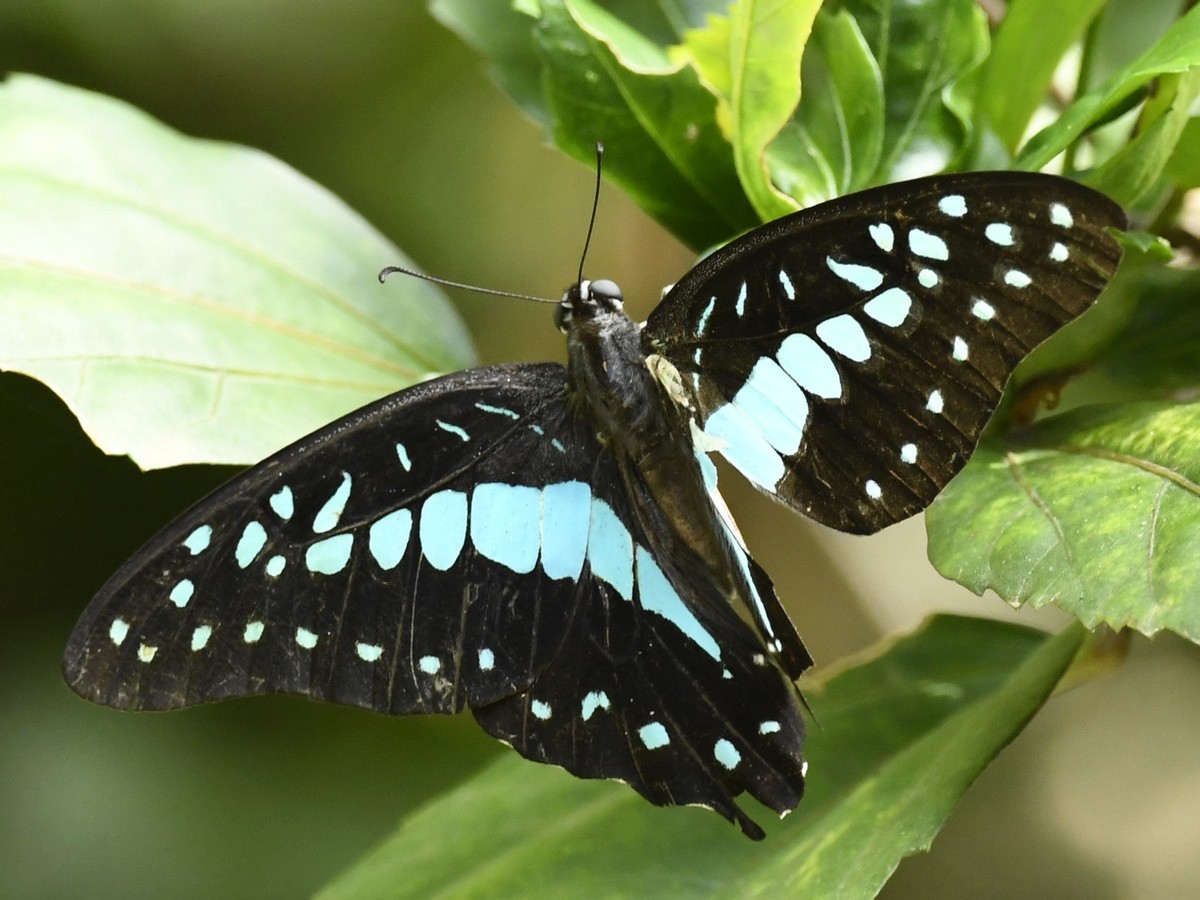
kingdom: Animalia
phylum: Arthropoda
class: Insecta
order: Lepidoptera
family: Papilionidae
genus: Graphium
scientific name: Graphium doson
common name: Common jay
